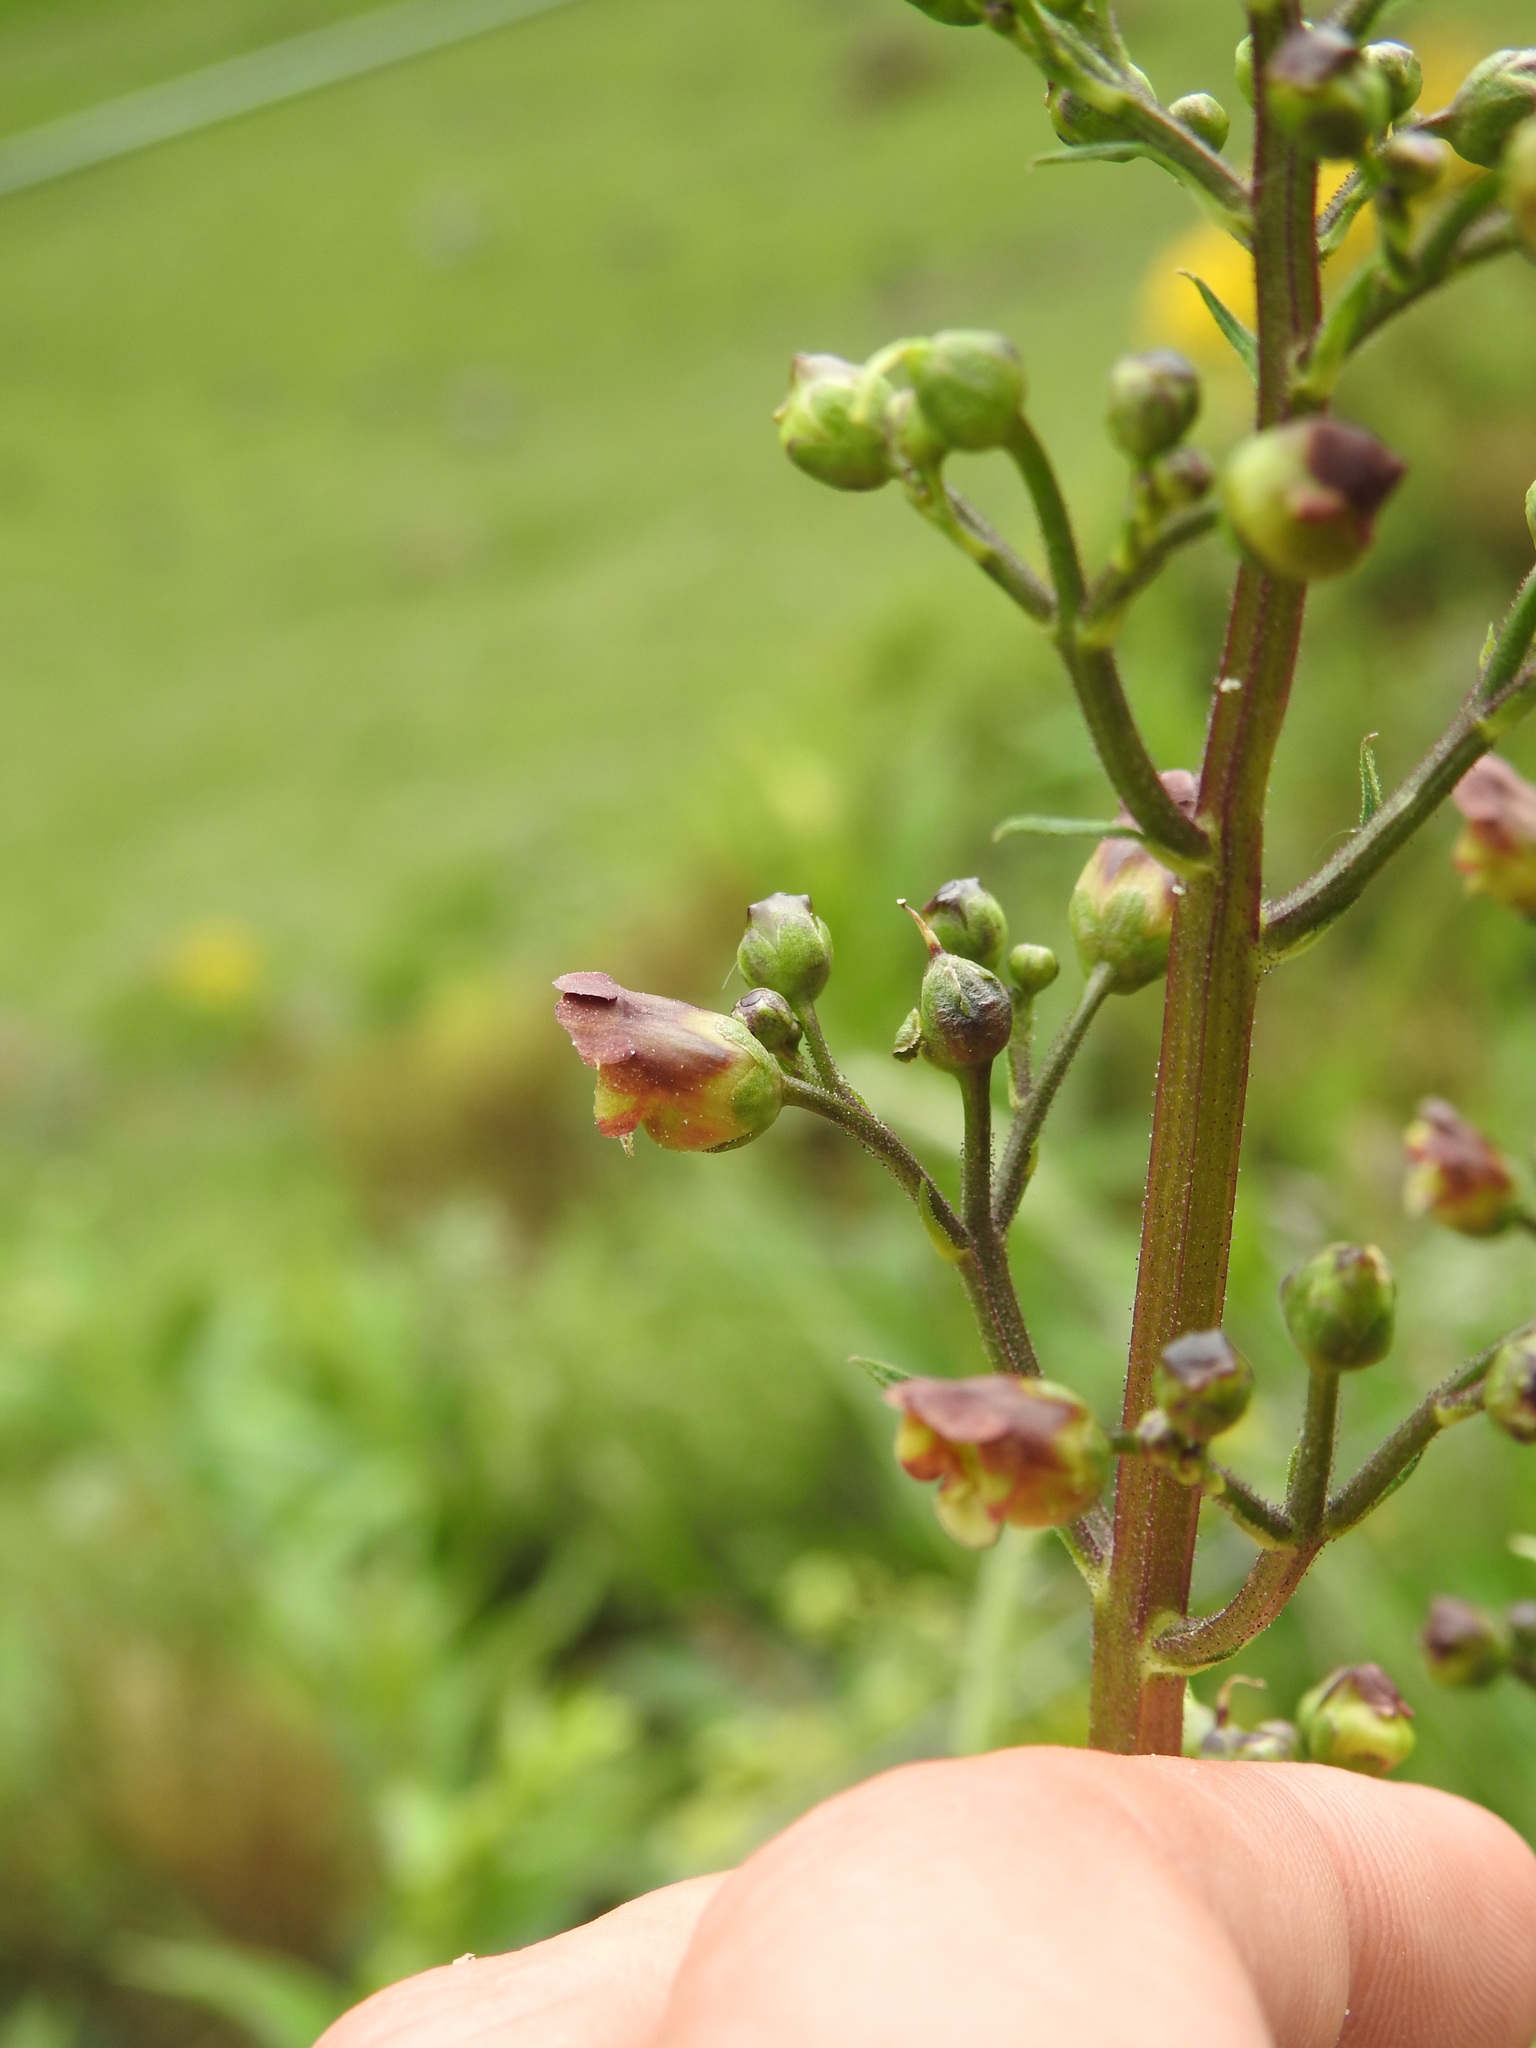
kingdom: Plantae
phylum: Tracheophyta
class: Magnoliopsida
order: Lamiales
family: Scrophulariaceae
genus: Scrophularia
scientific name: Scrophularia nodosa
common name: Common figwort
